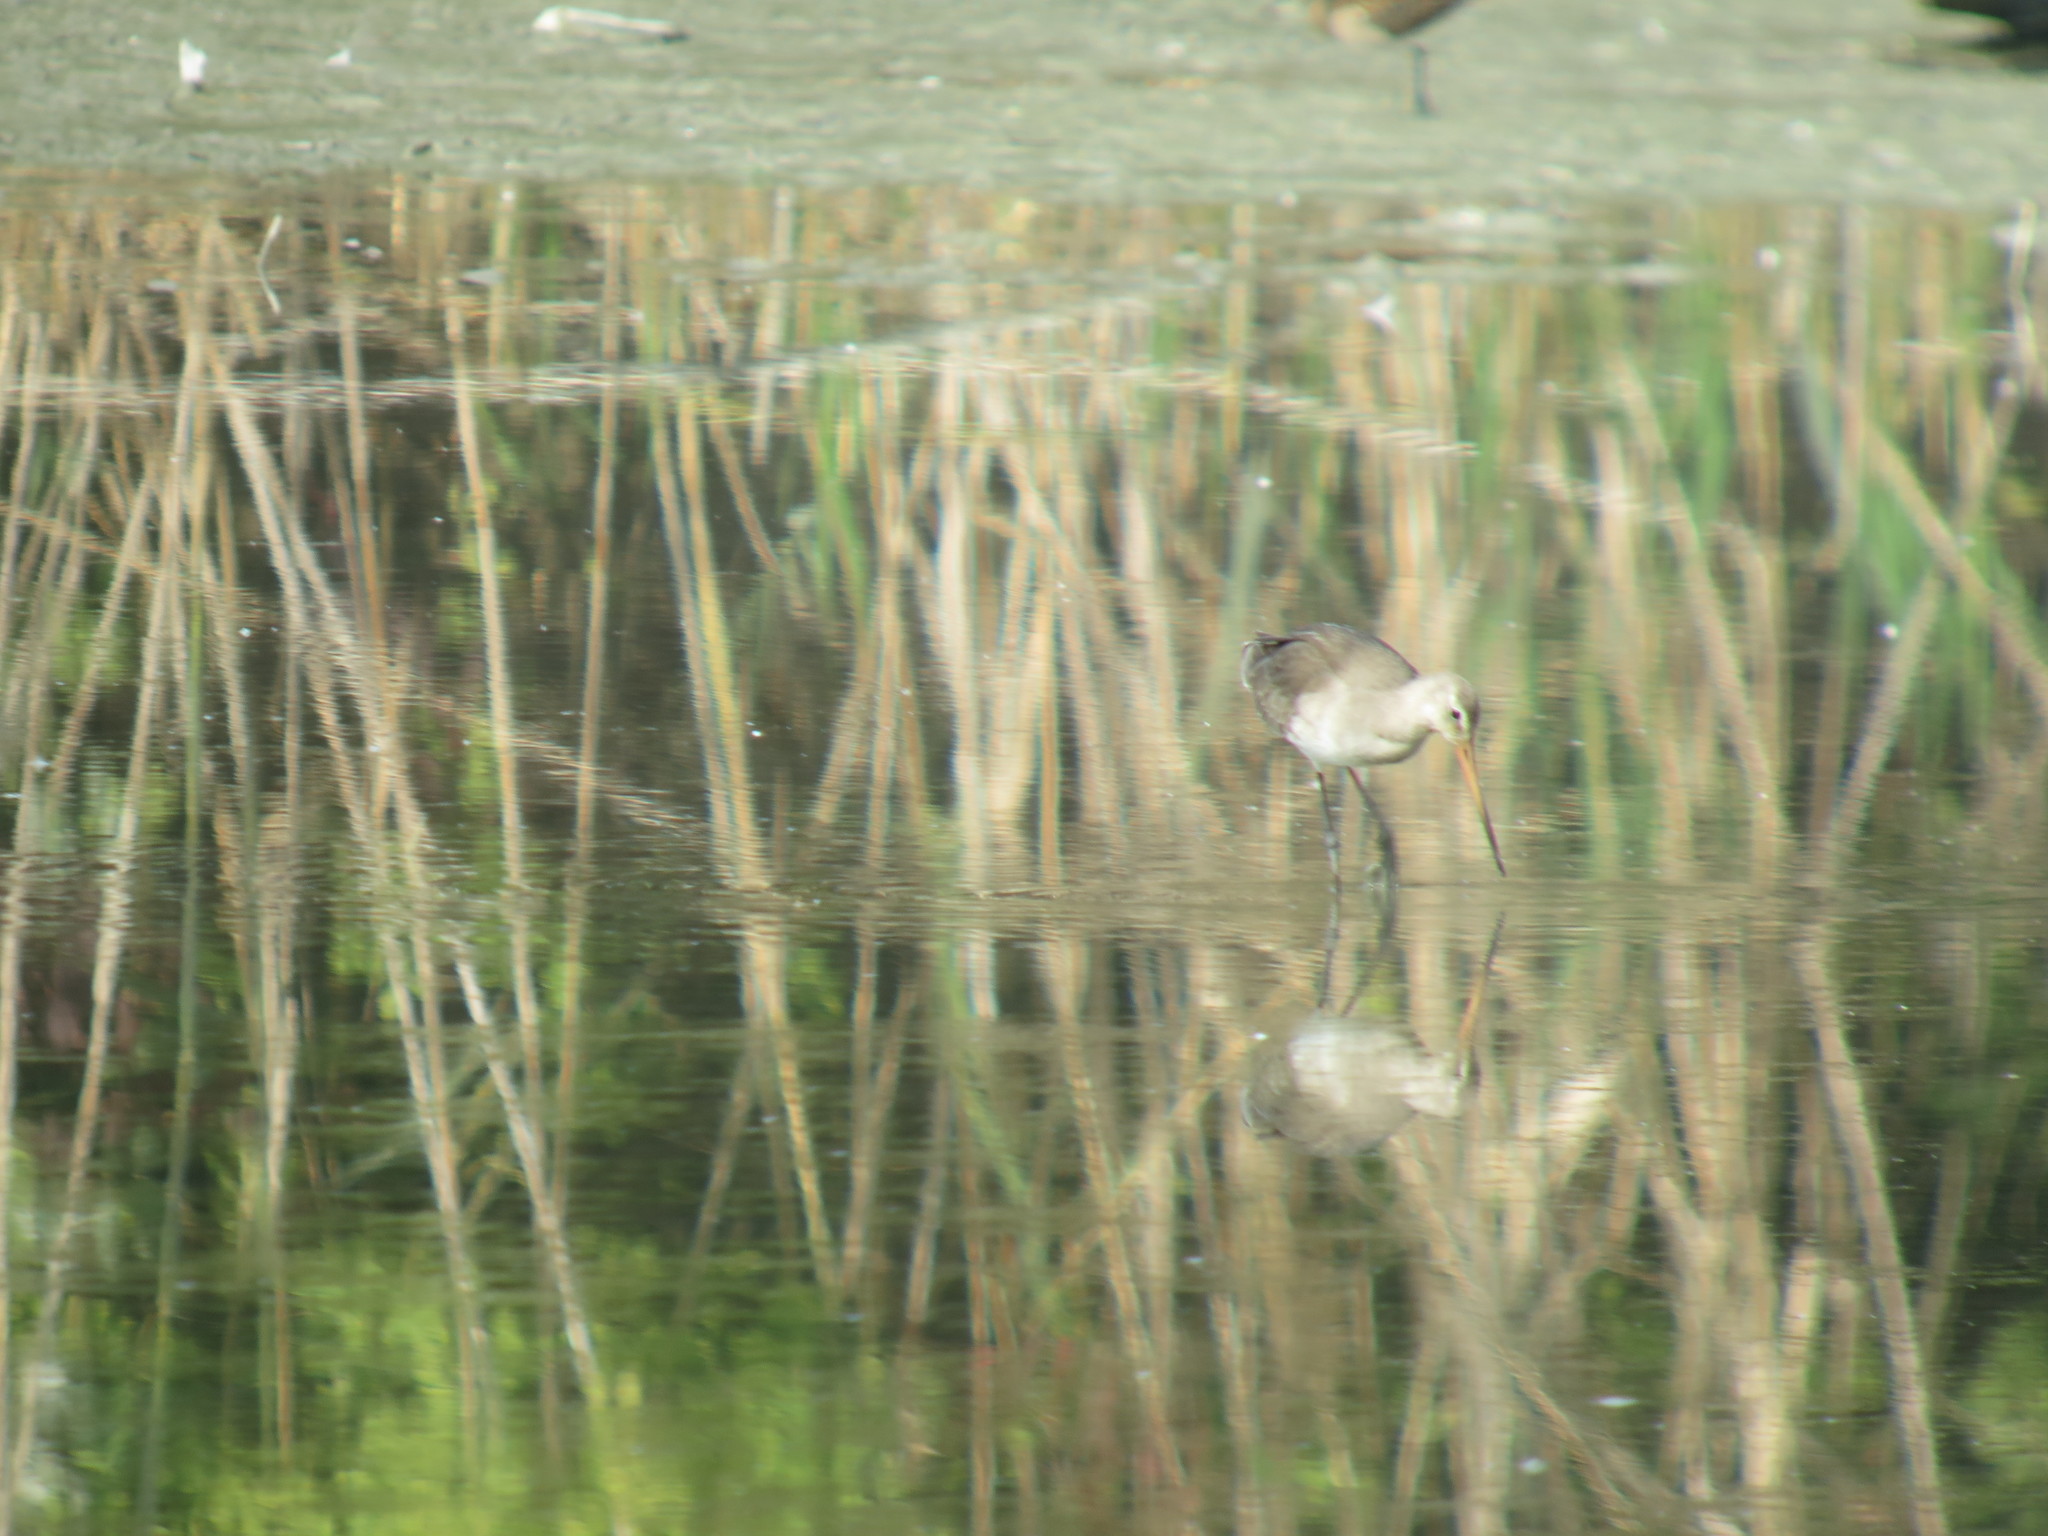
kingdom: Animalia
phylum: Chordata
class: Aves
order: Charadriiformes
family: Scolopacidae
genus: Limosa
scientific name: Limosa limosa
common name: Black-tailed godwit
